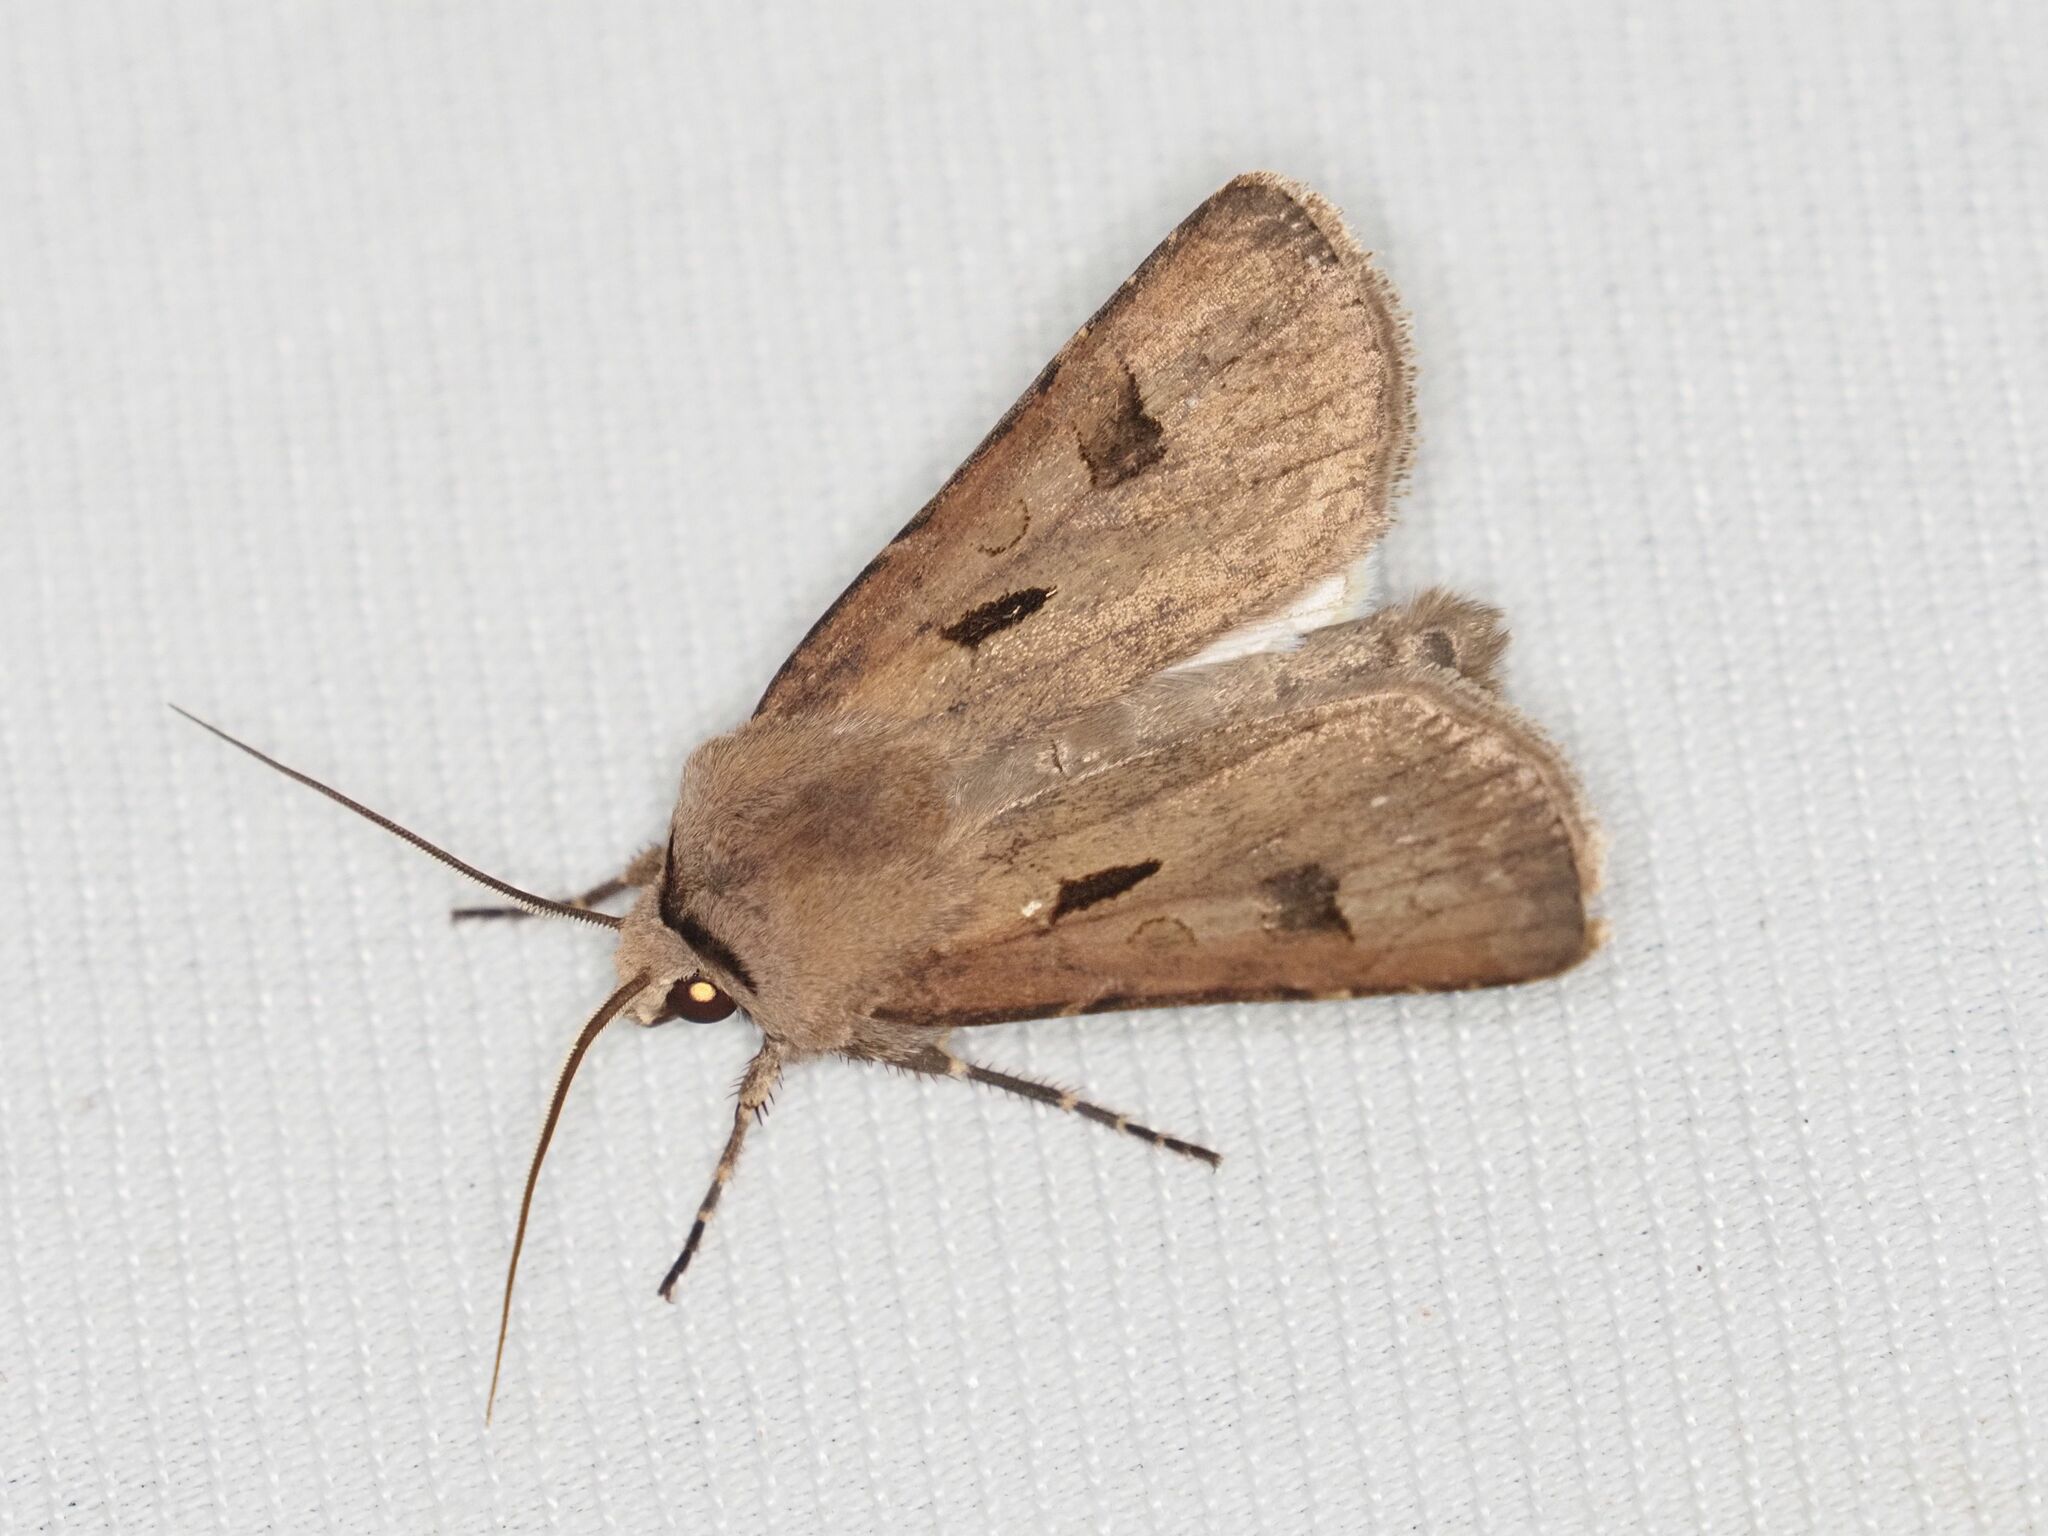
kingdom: Animalia
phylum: Arthropoda
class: Insecta
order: Lepidoptera
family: Noctuidae
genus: Agrotis
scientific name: Agrotis exclamationis
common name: Heart and dart
